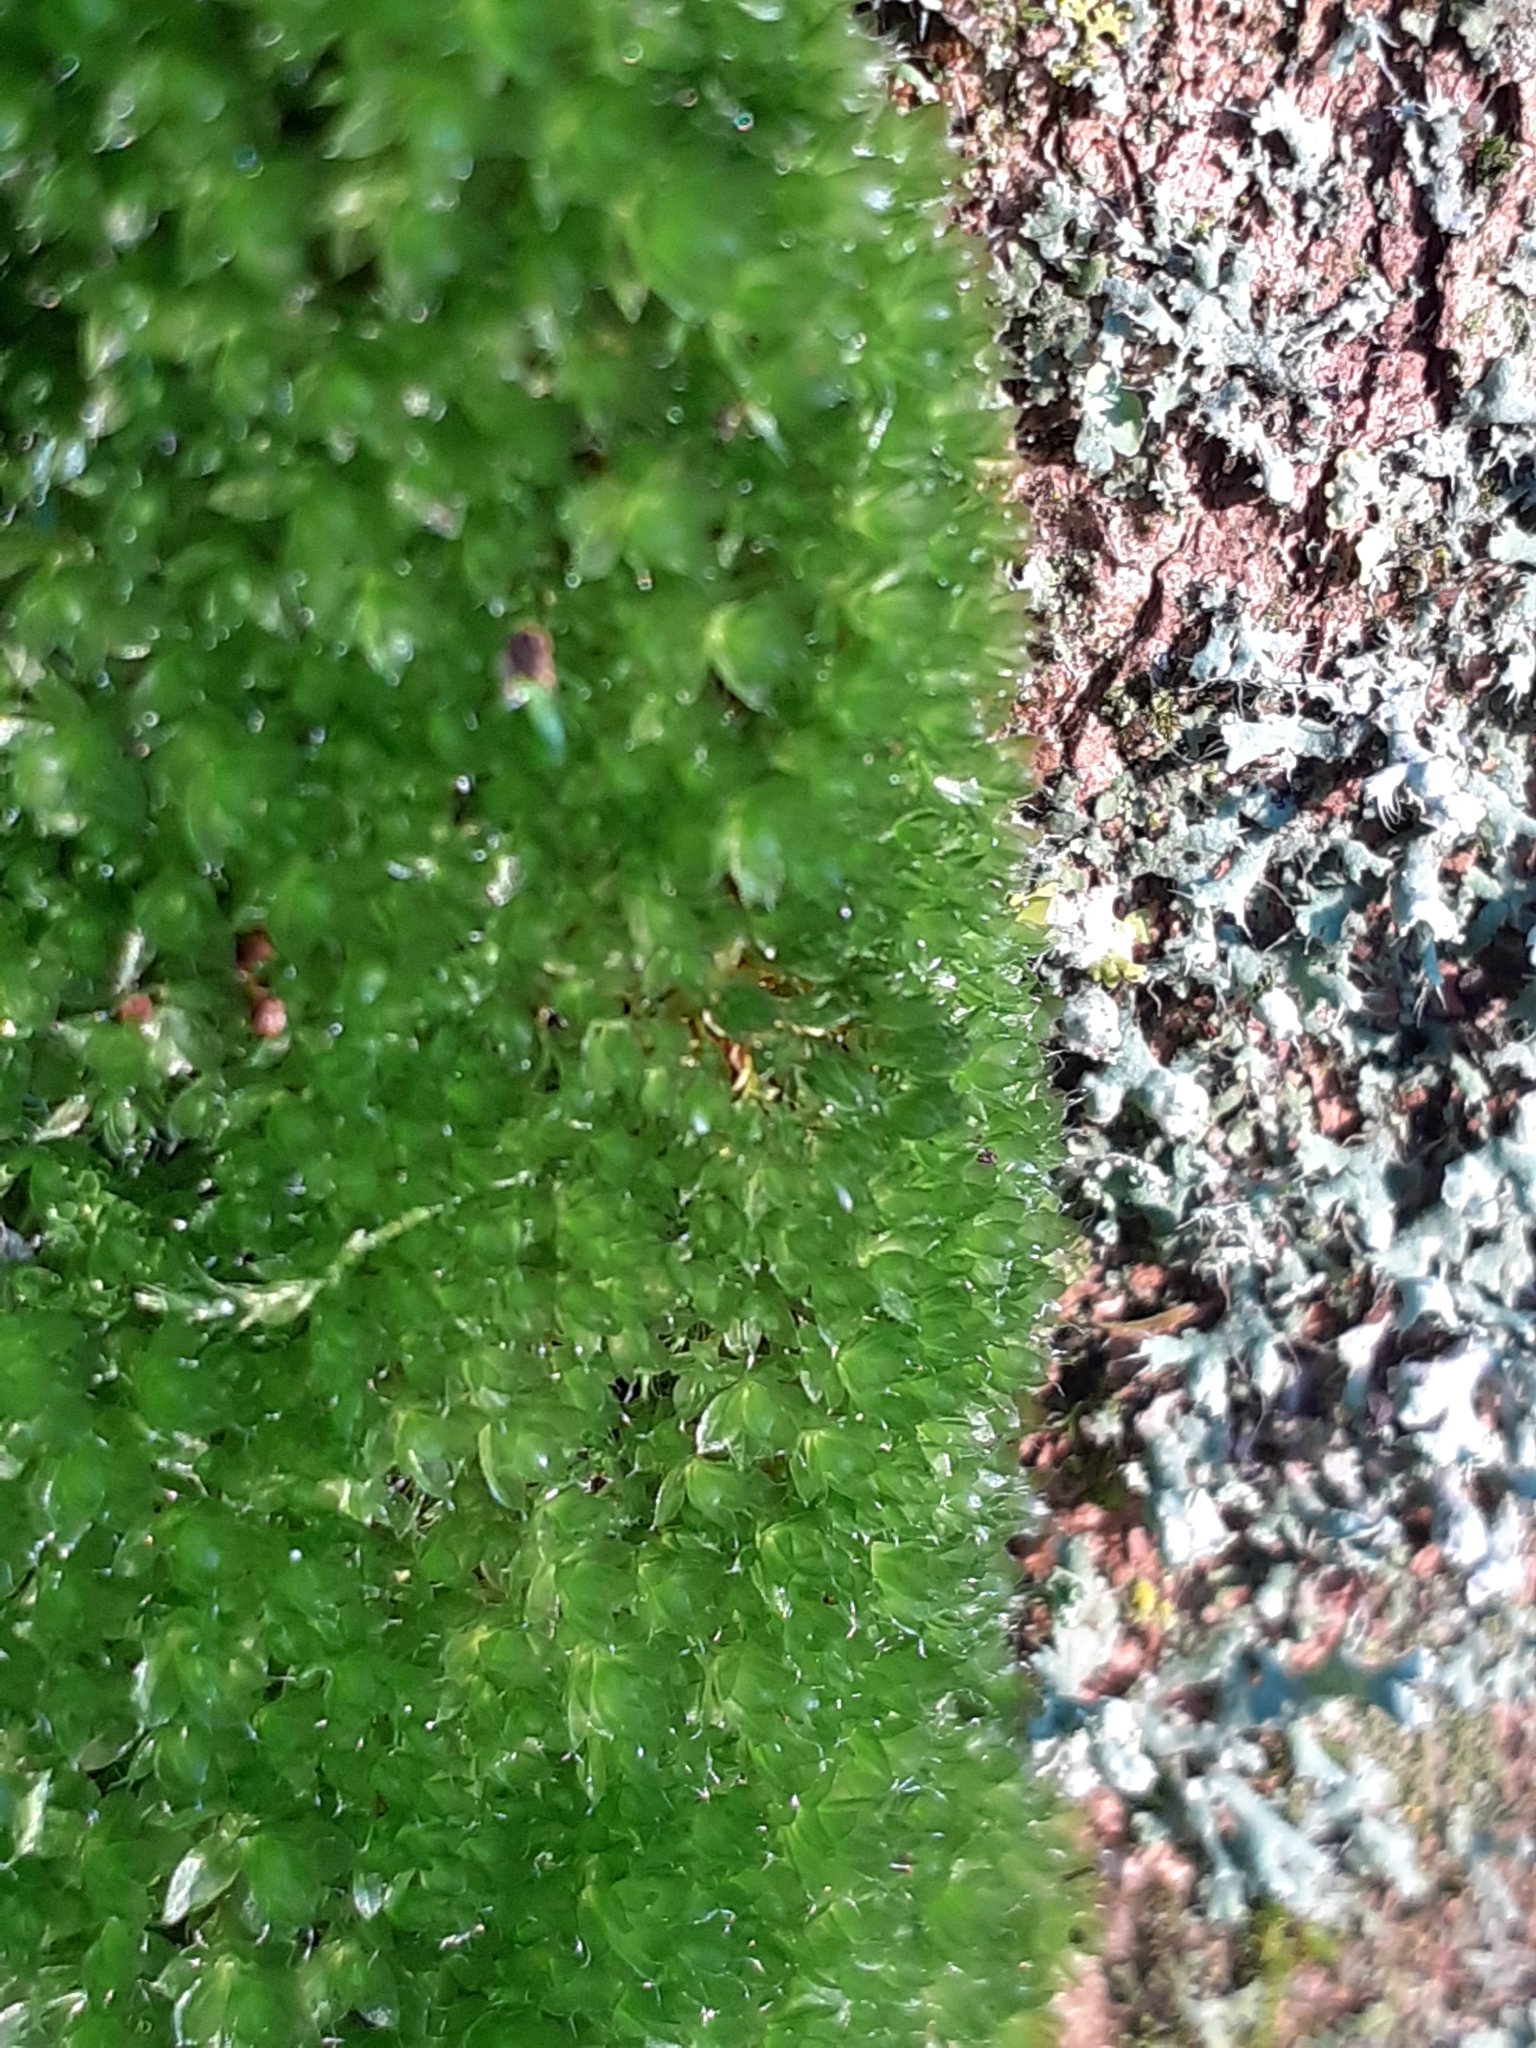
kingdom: Plantae
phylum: Bryophyta
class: Bryopsida
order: Bryales
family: Bryaceae
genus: Rosulabryum
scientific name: Rosulabryum capillare
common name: Capillary thread-moss
